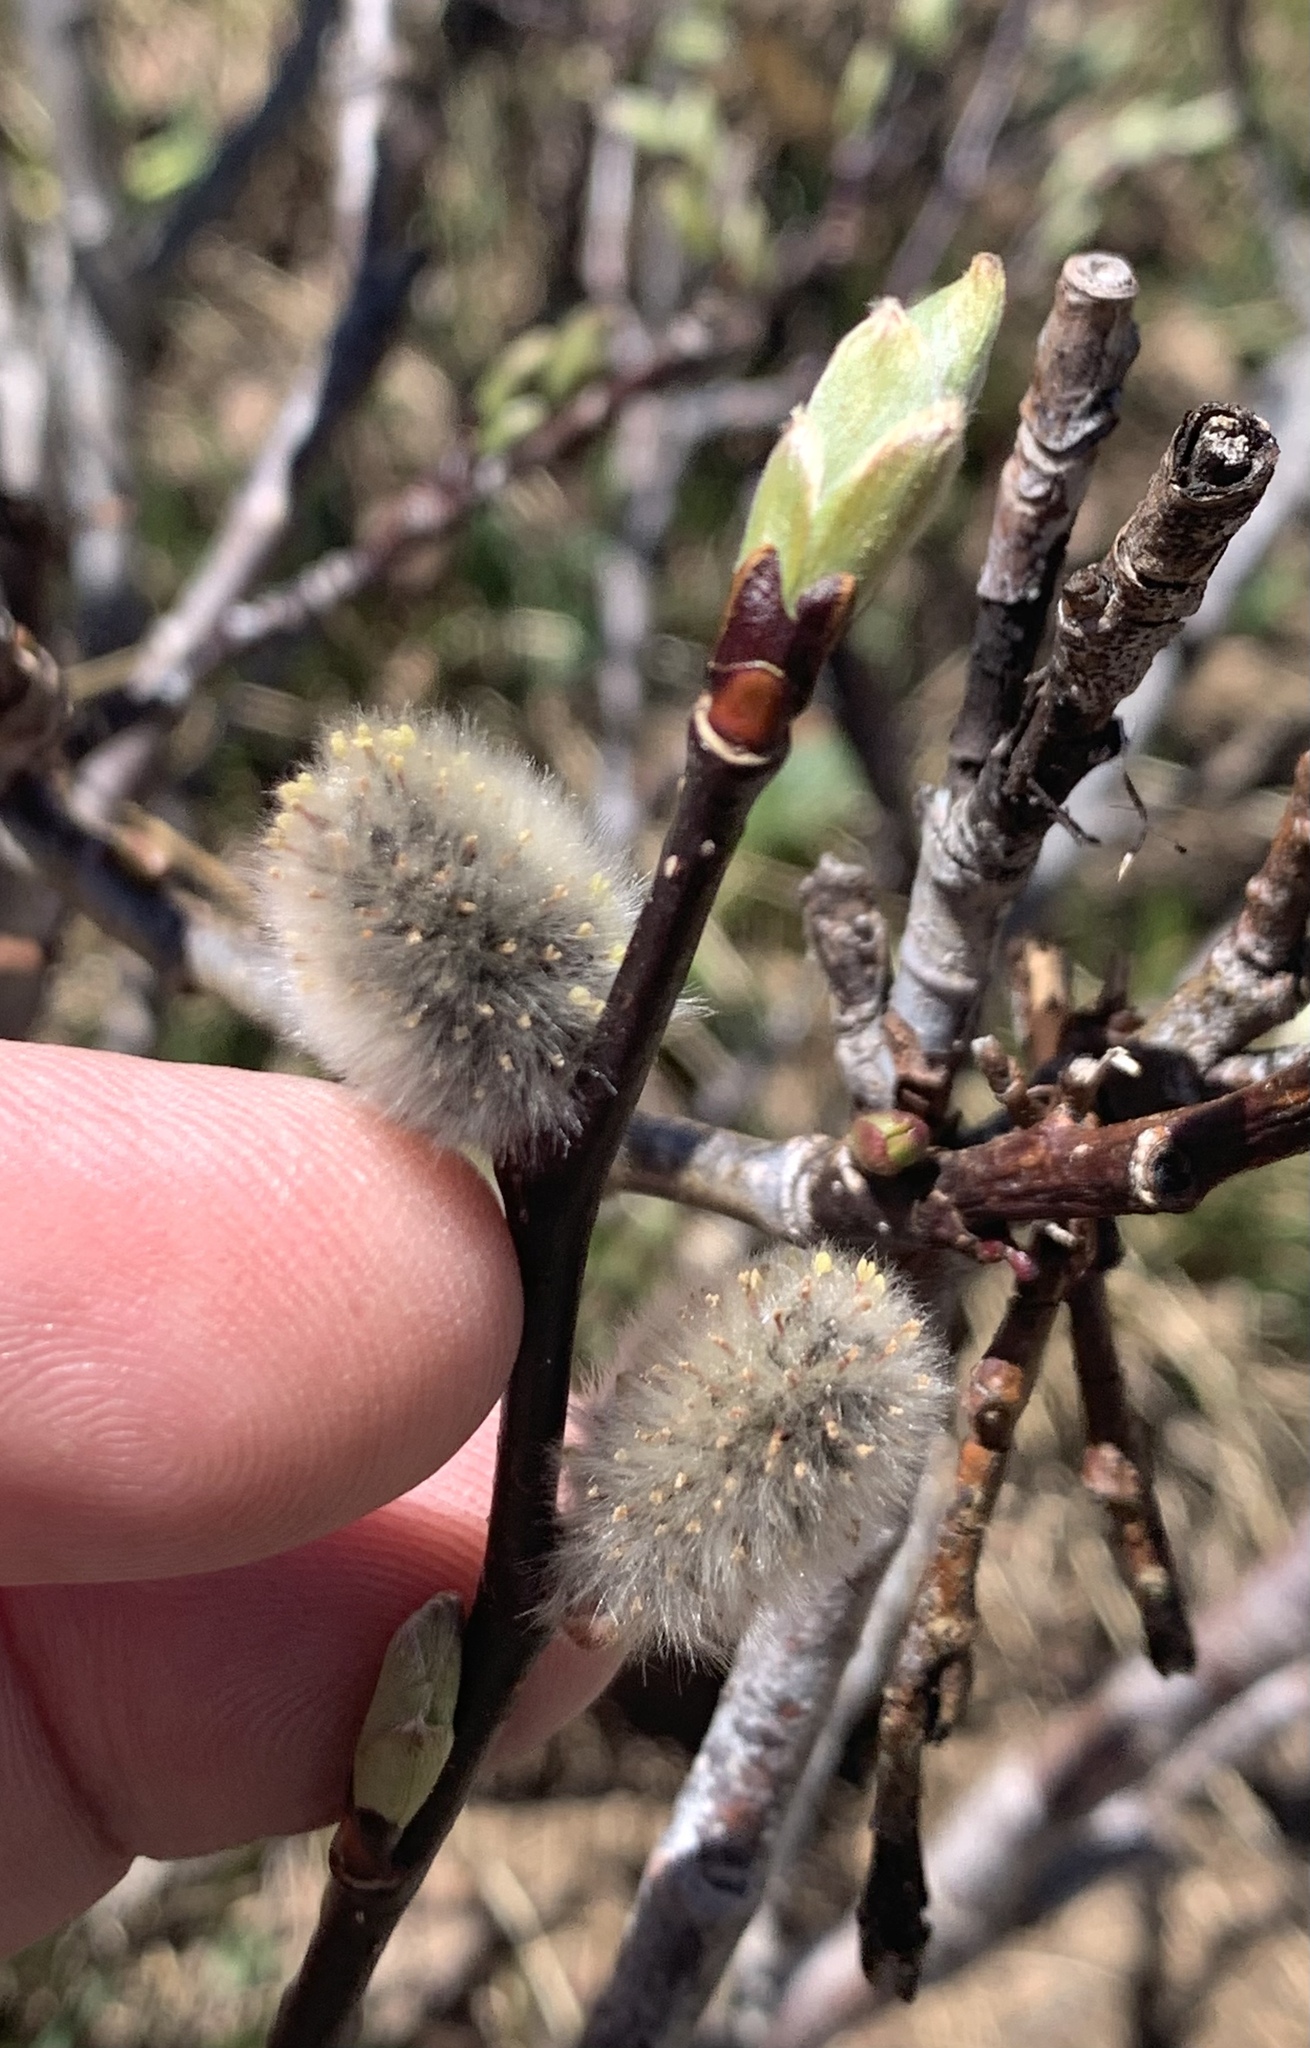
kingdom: Plantae
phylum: Tracheophyta
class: Magnoliopsida
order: Malpighiales
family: Salicaceae
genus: Salix
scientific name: Salix discolor
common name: Glaucous willow
